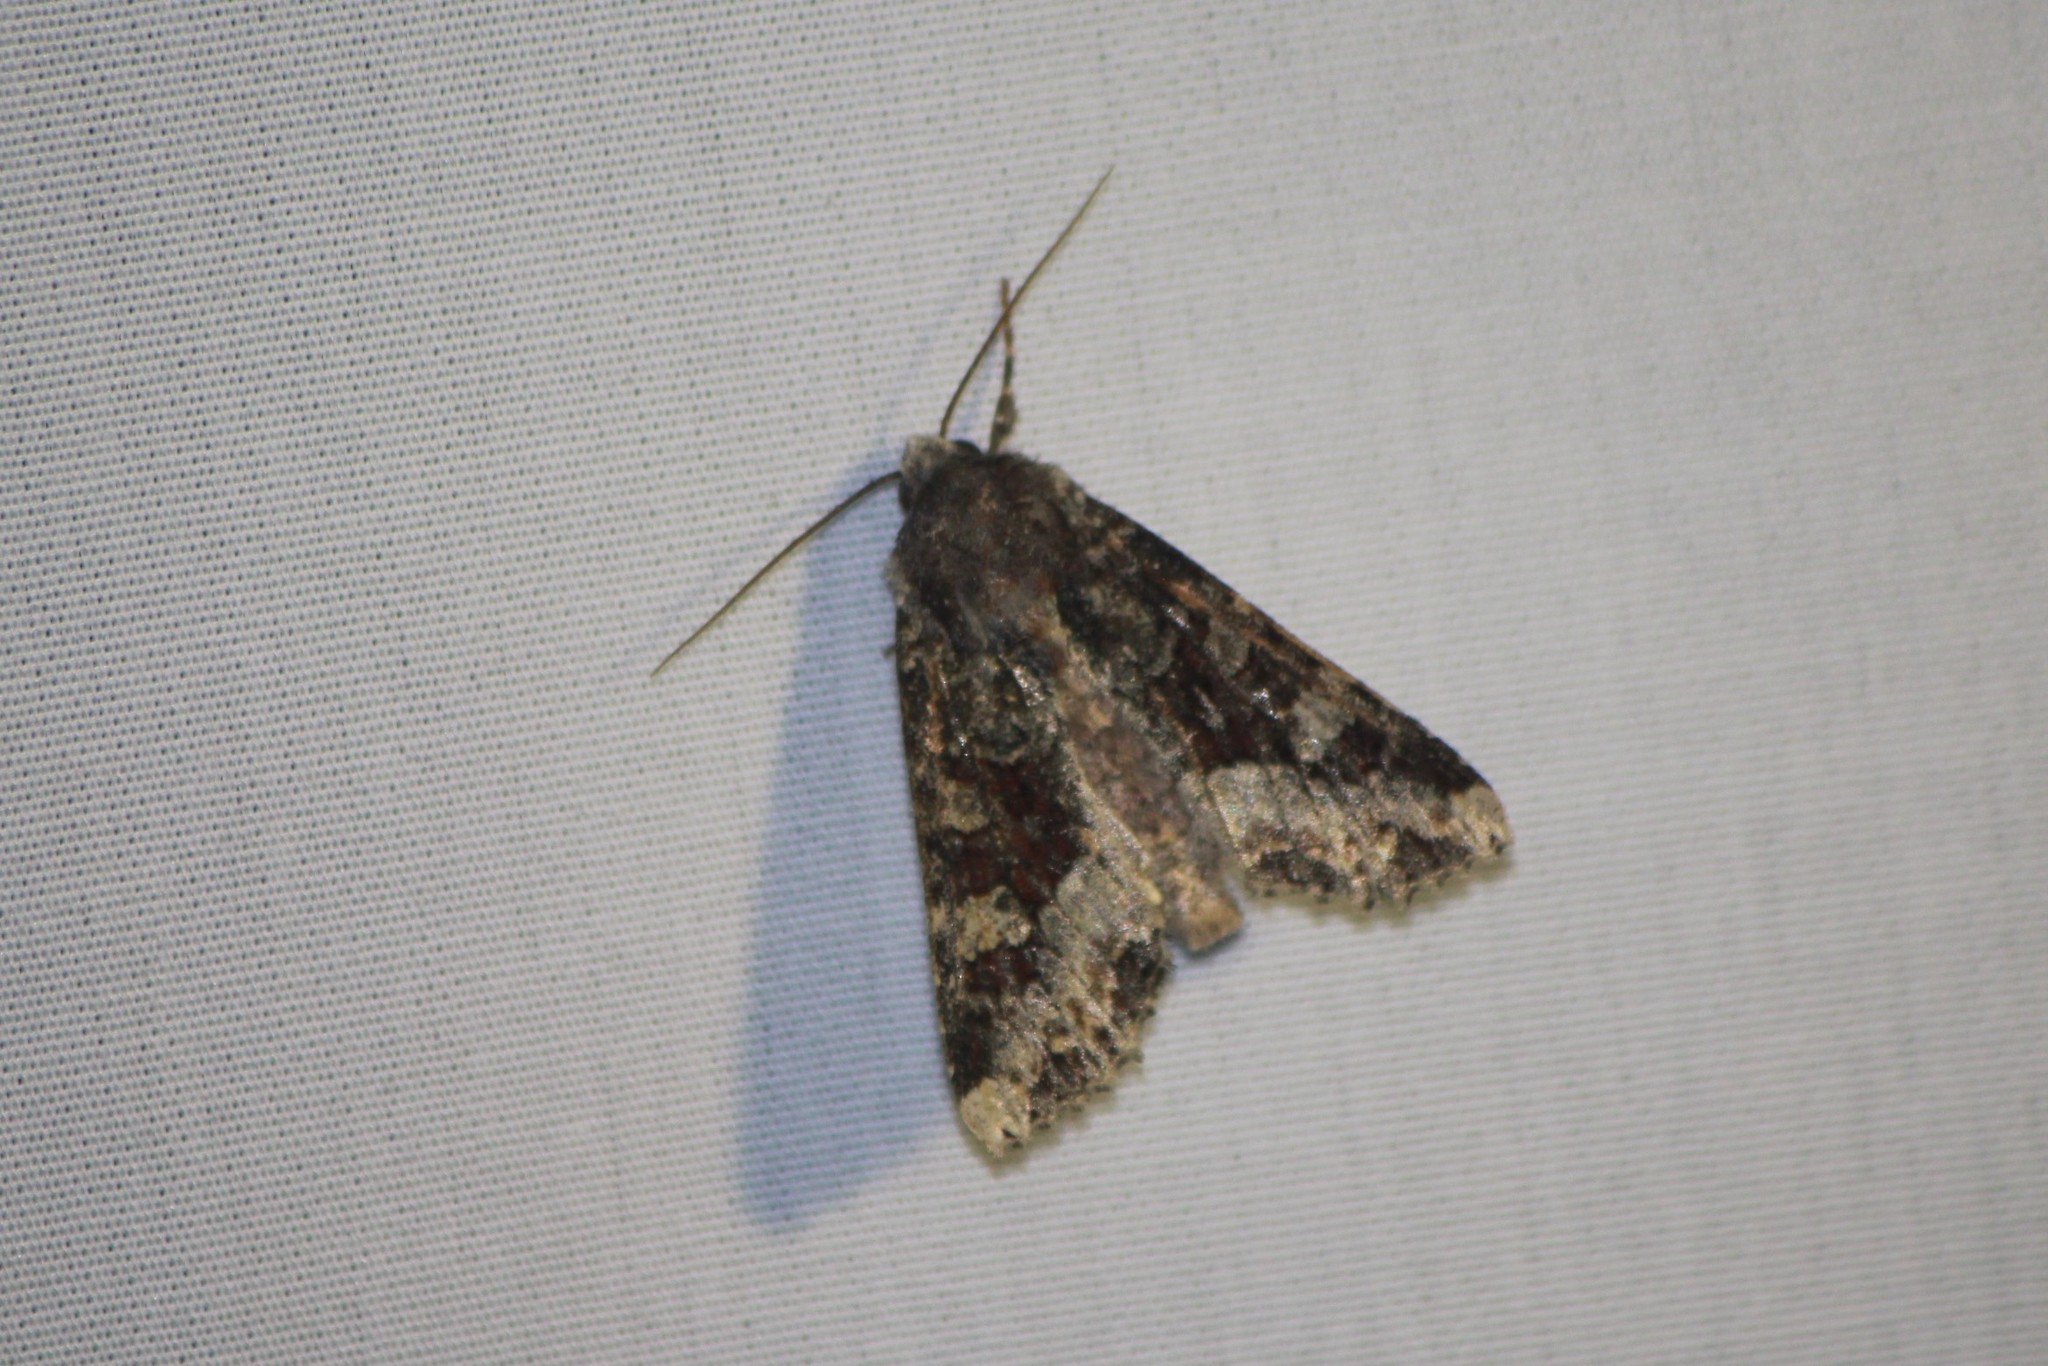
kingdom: Animalia
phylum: Arthropoda
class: Insecta
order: Lepidoptera
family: Noctuidae
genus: Apamea
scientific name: Apamea amputatrix
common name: Yellow-headed cutworm moth
